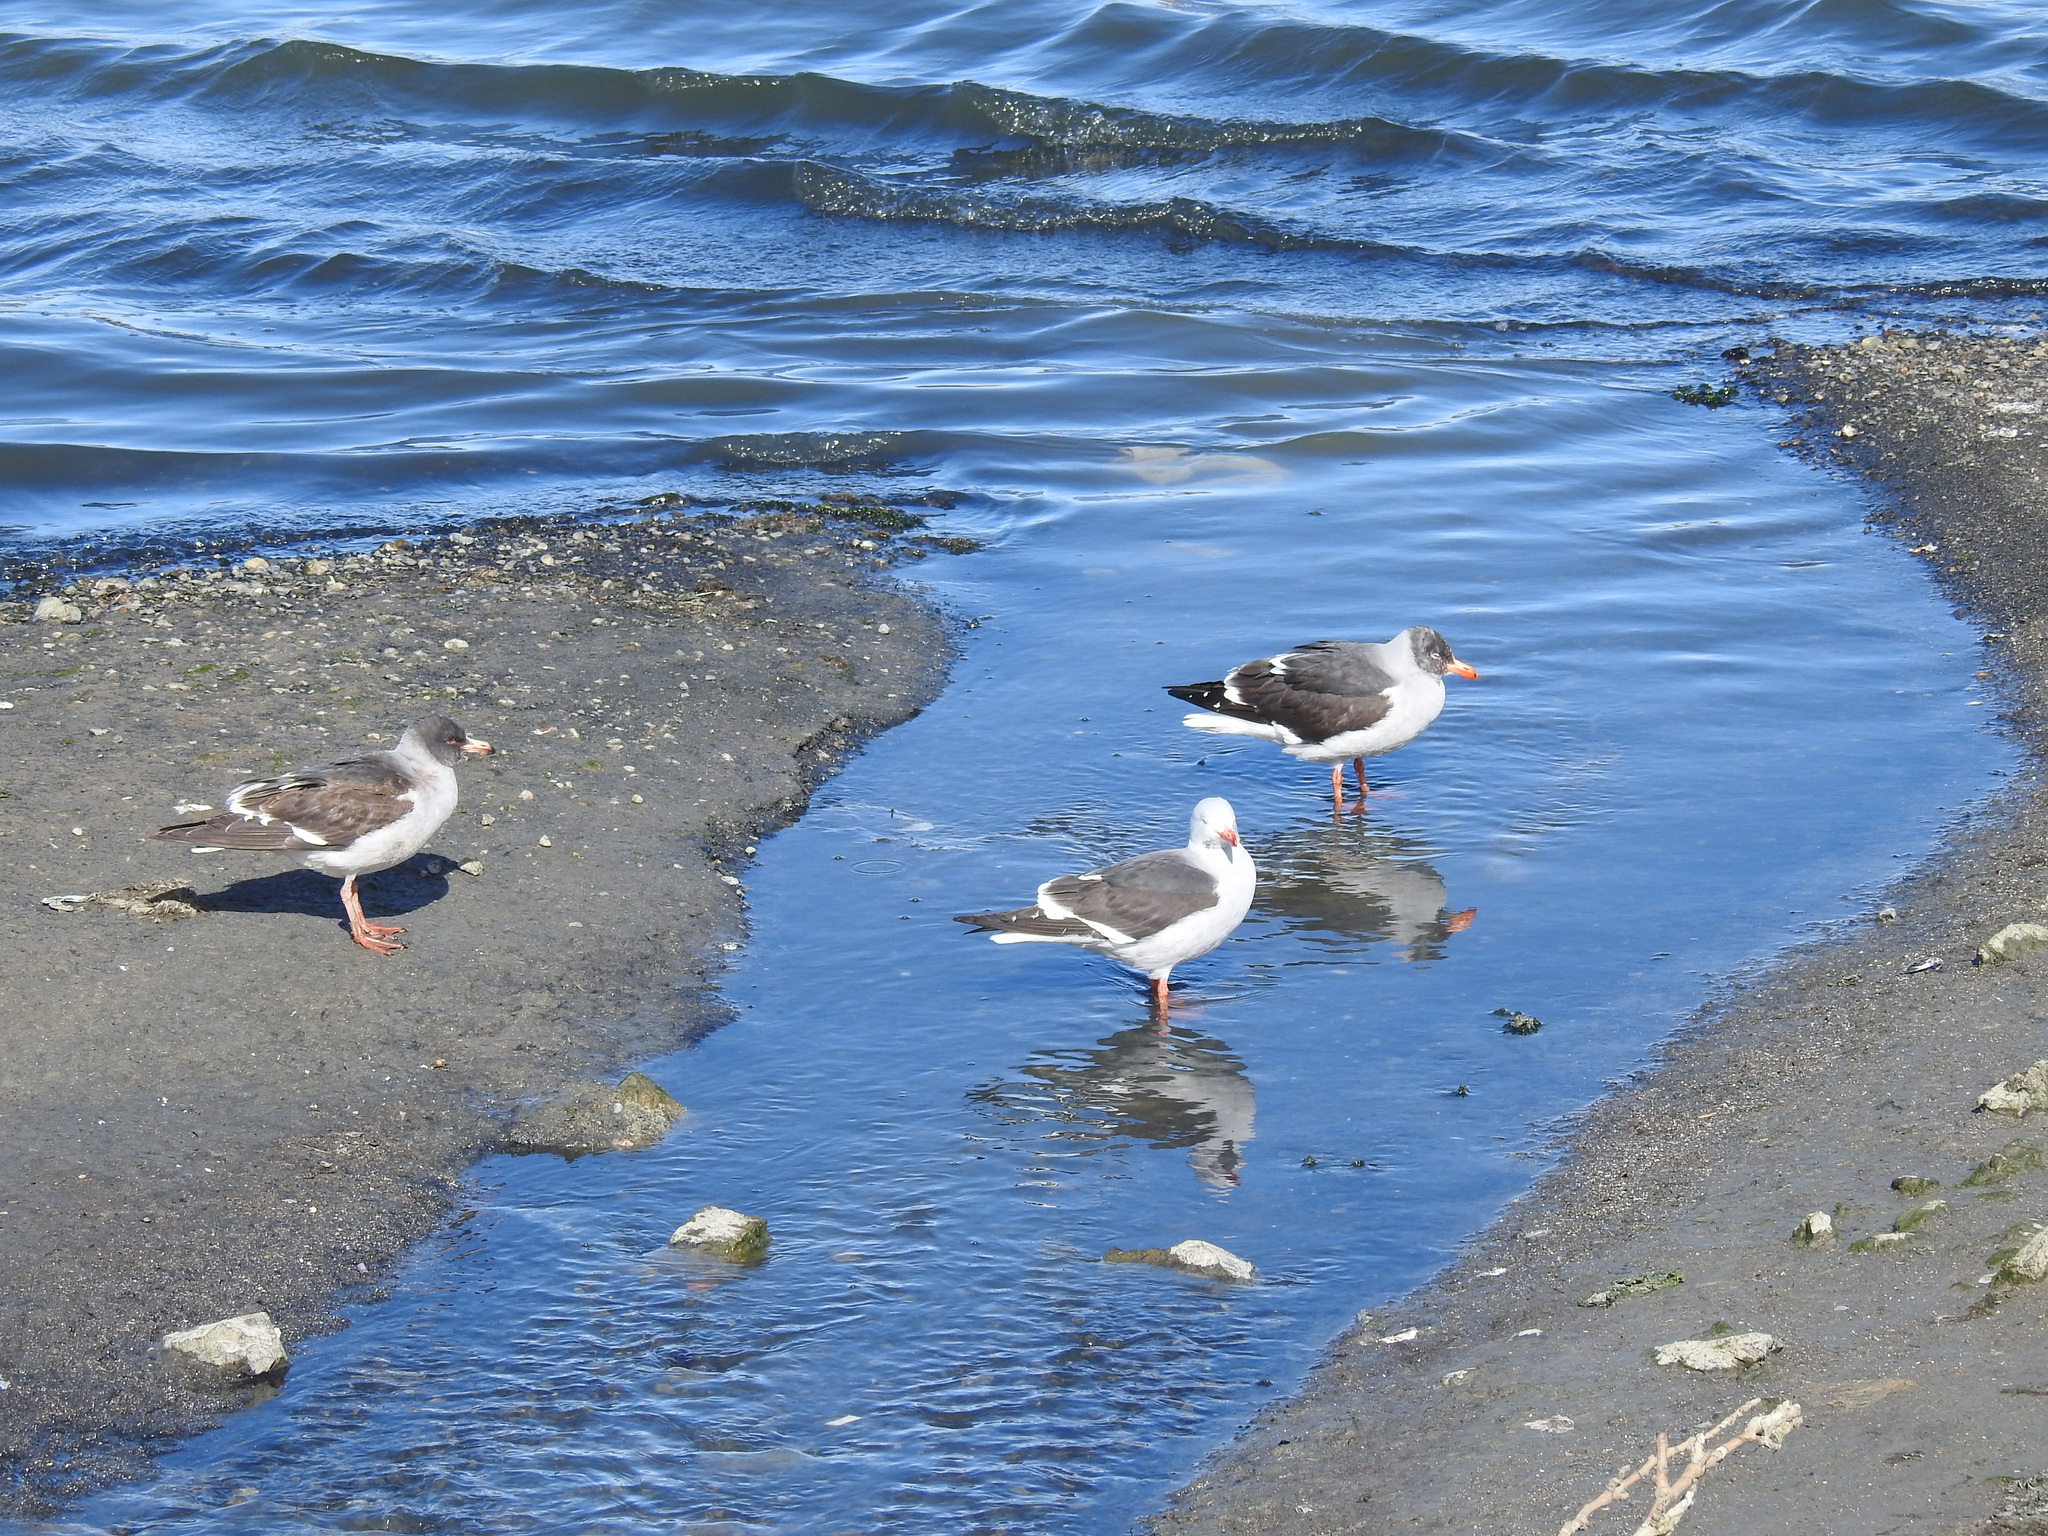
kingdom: Animalia
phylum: Chordata
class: Aves
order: Charadriiformes
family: Laridae
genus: Leucophaeus
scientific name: Leucophaeus scoresbii
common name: Dolphin gull
